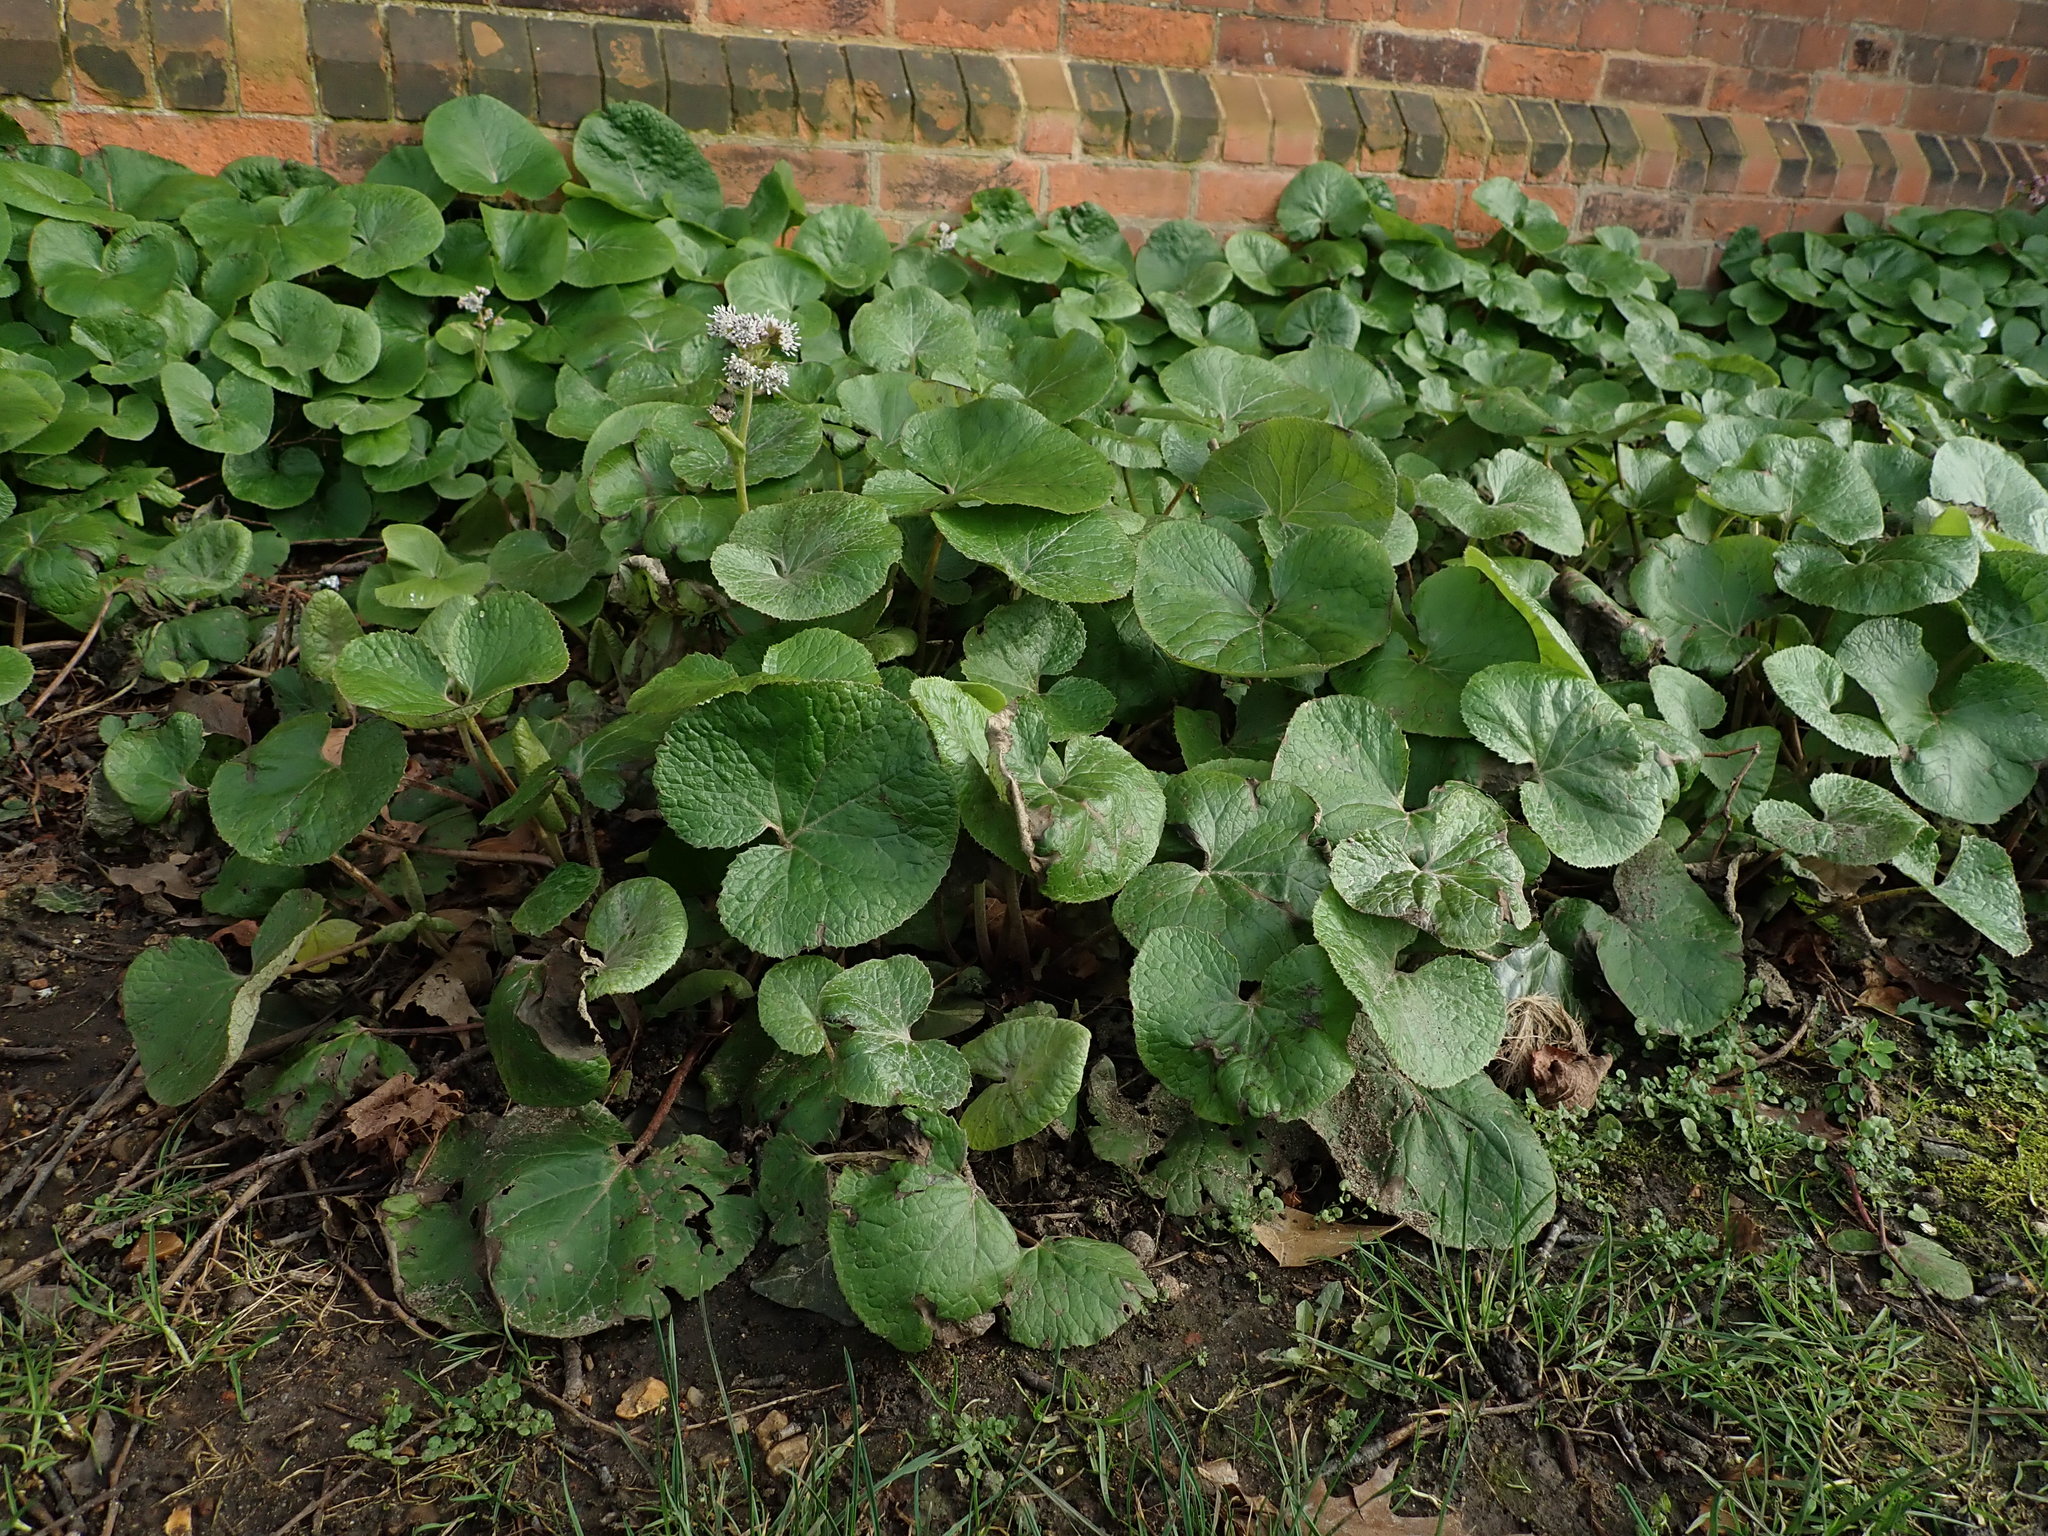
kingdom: Plantae
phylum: Tracheophyta
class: Magnoliopsida
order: Asterales
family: Asteraceae
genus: Petasites
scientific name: Petasites pyrenaicus
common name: Winter heliotrope
